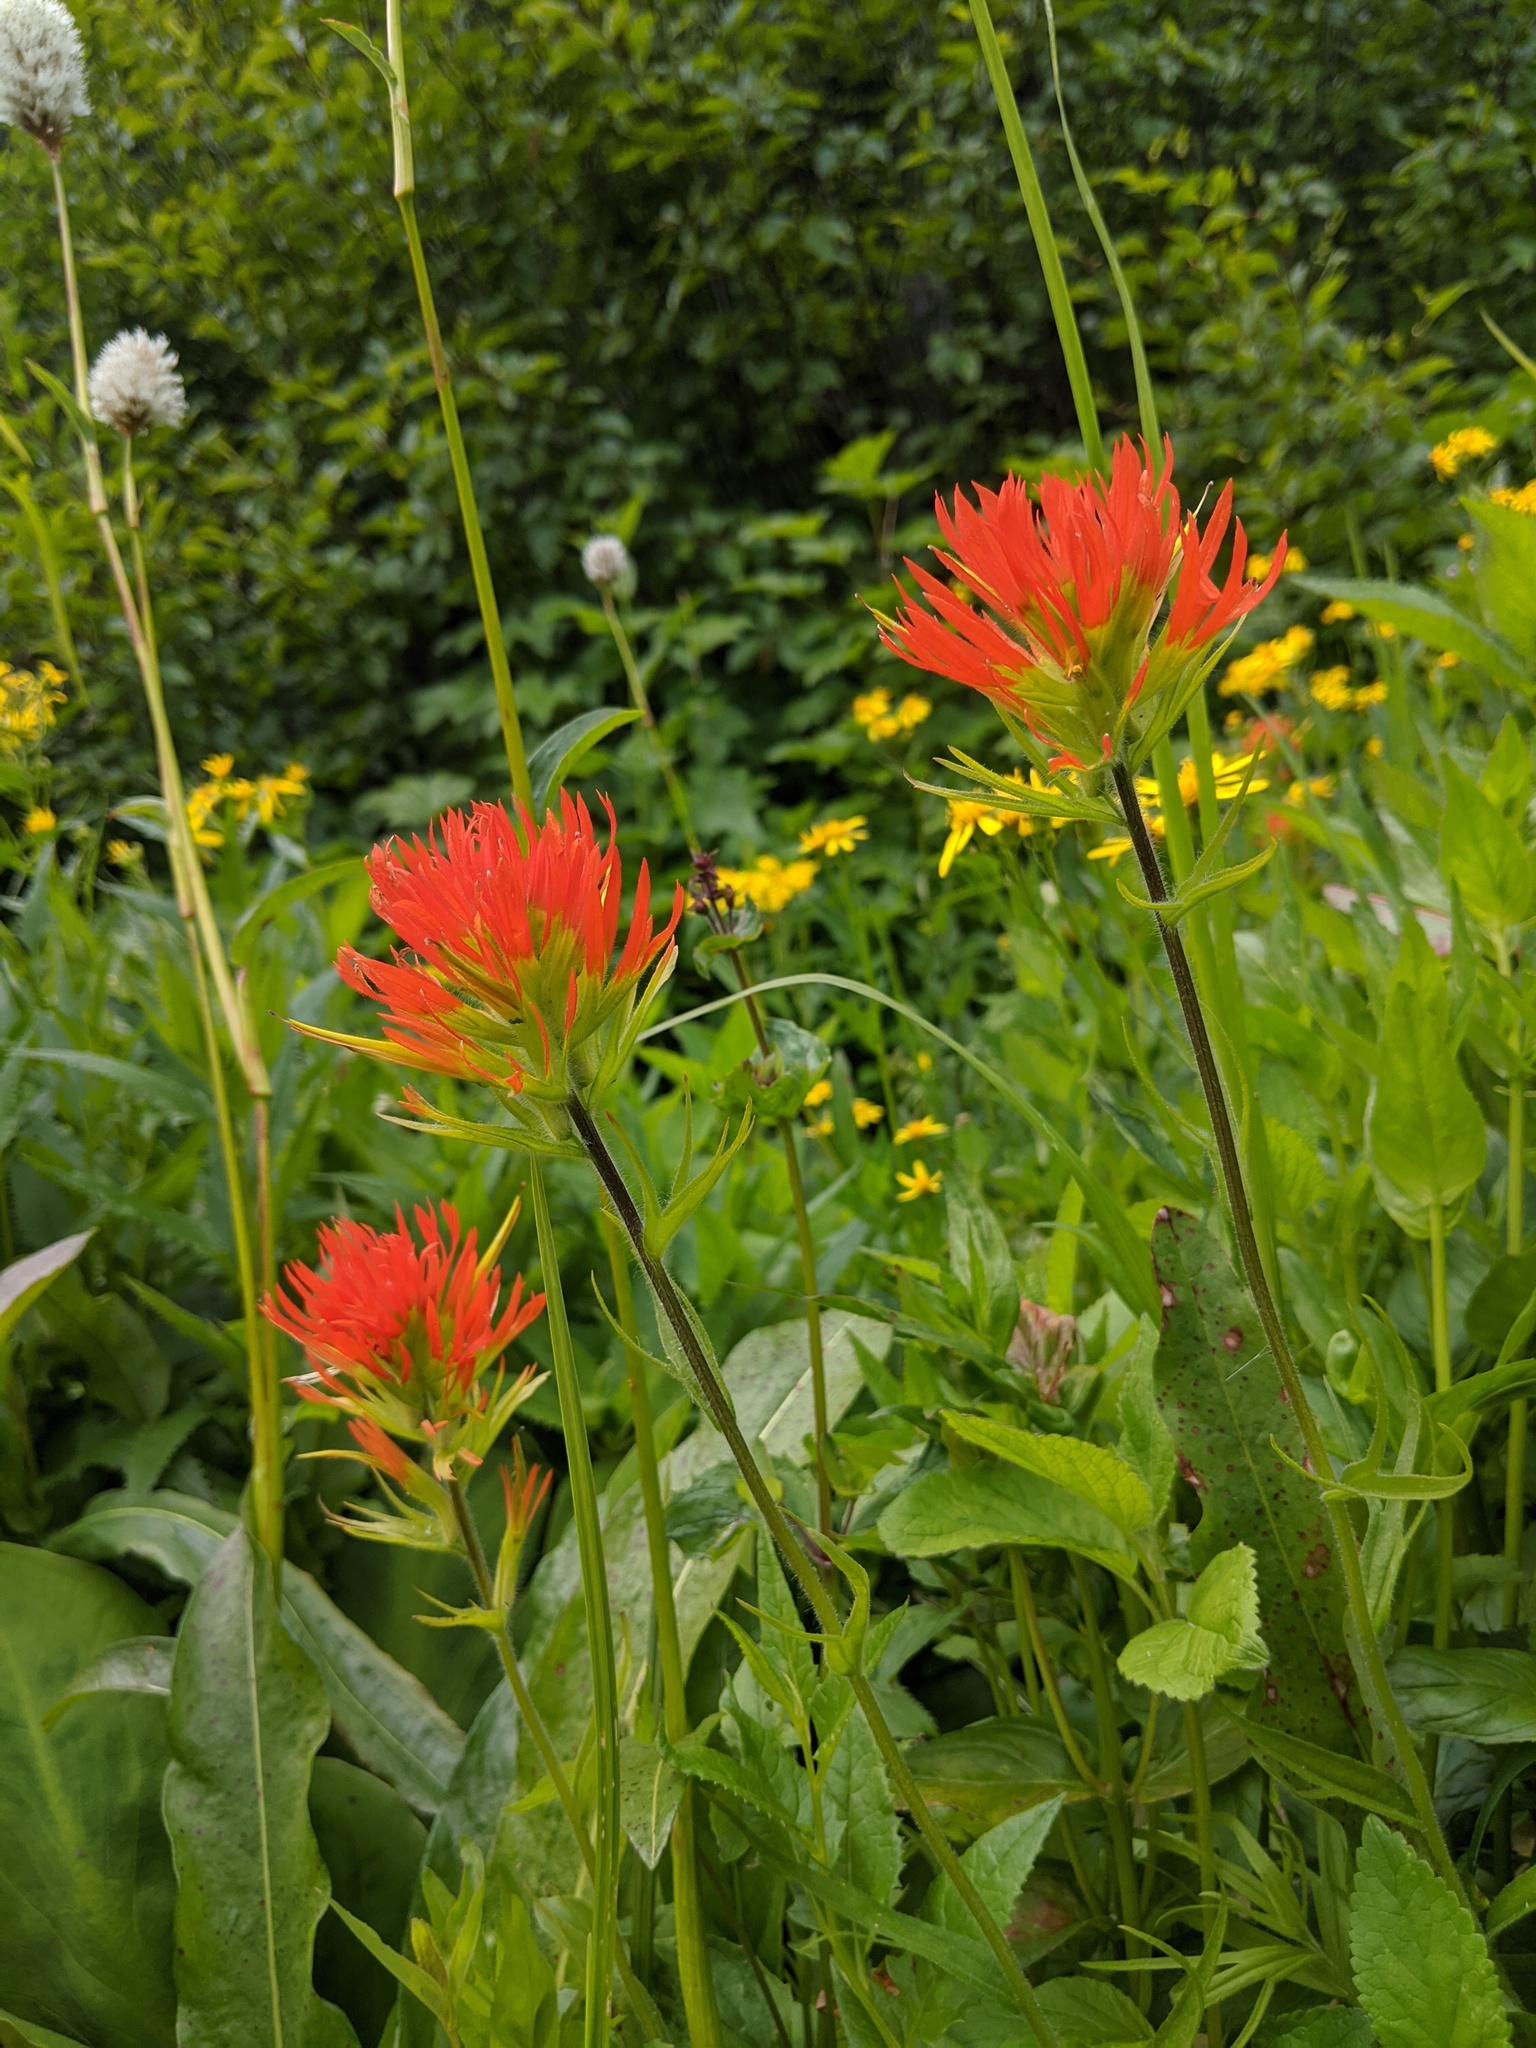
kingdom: Plantae
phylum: Tracheophyta
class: Magnoliopsida
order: Lamiales
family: Orobanchaceae
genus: Castilleja
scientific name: Castilleja suksdorfii
